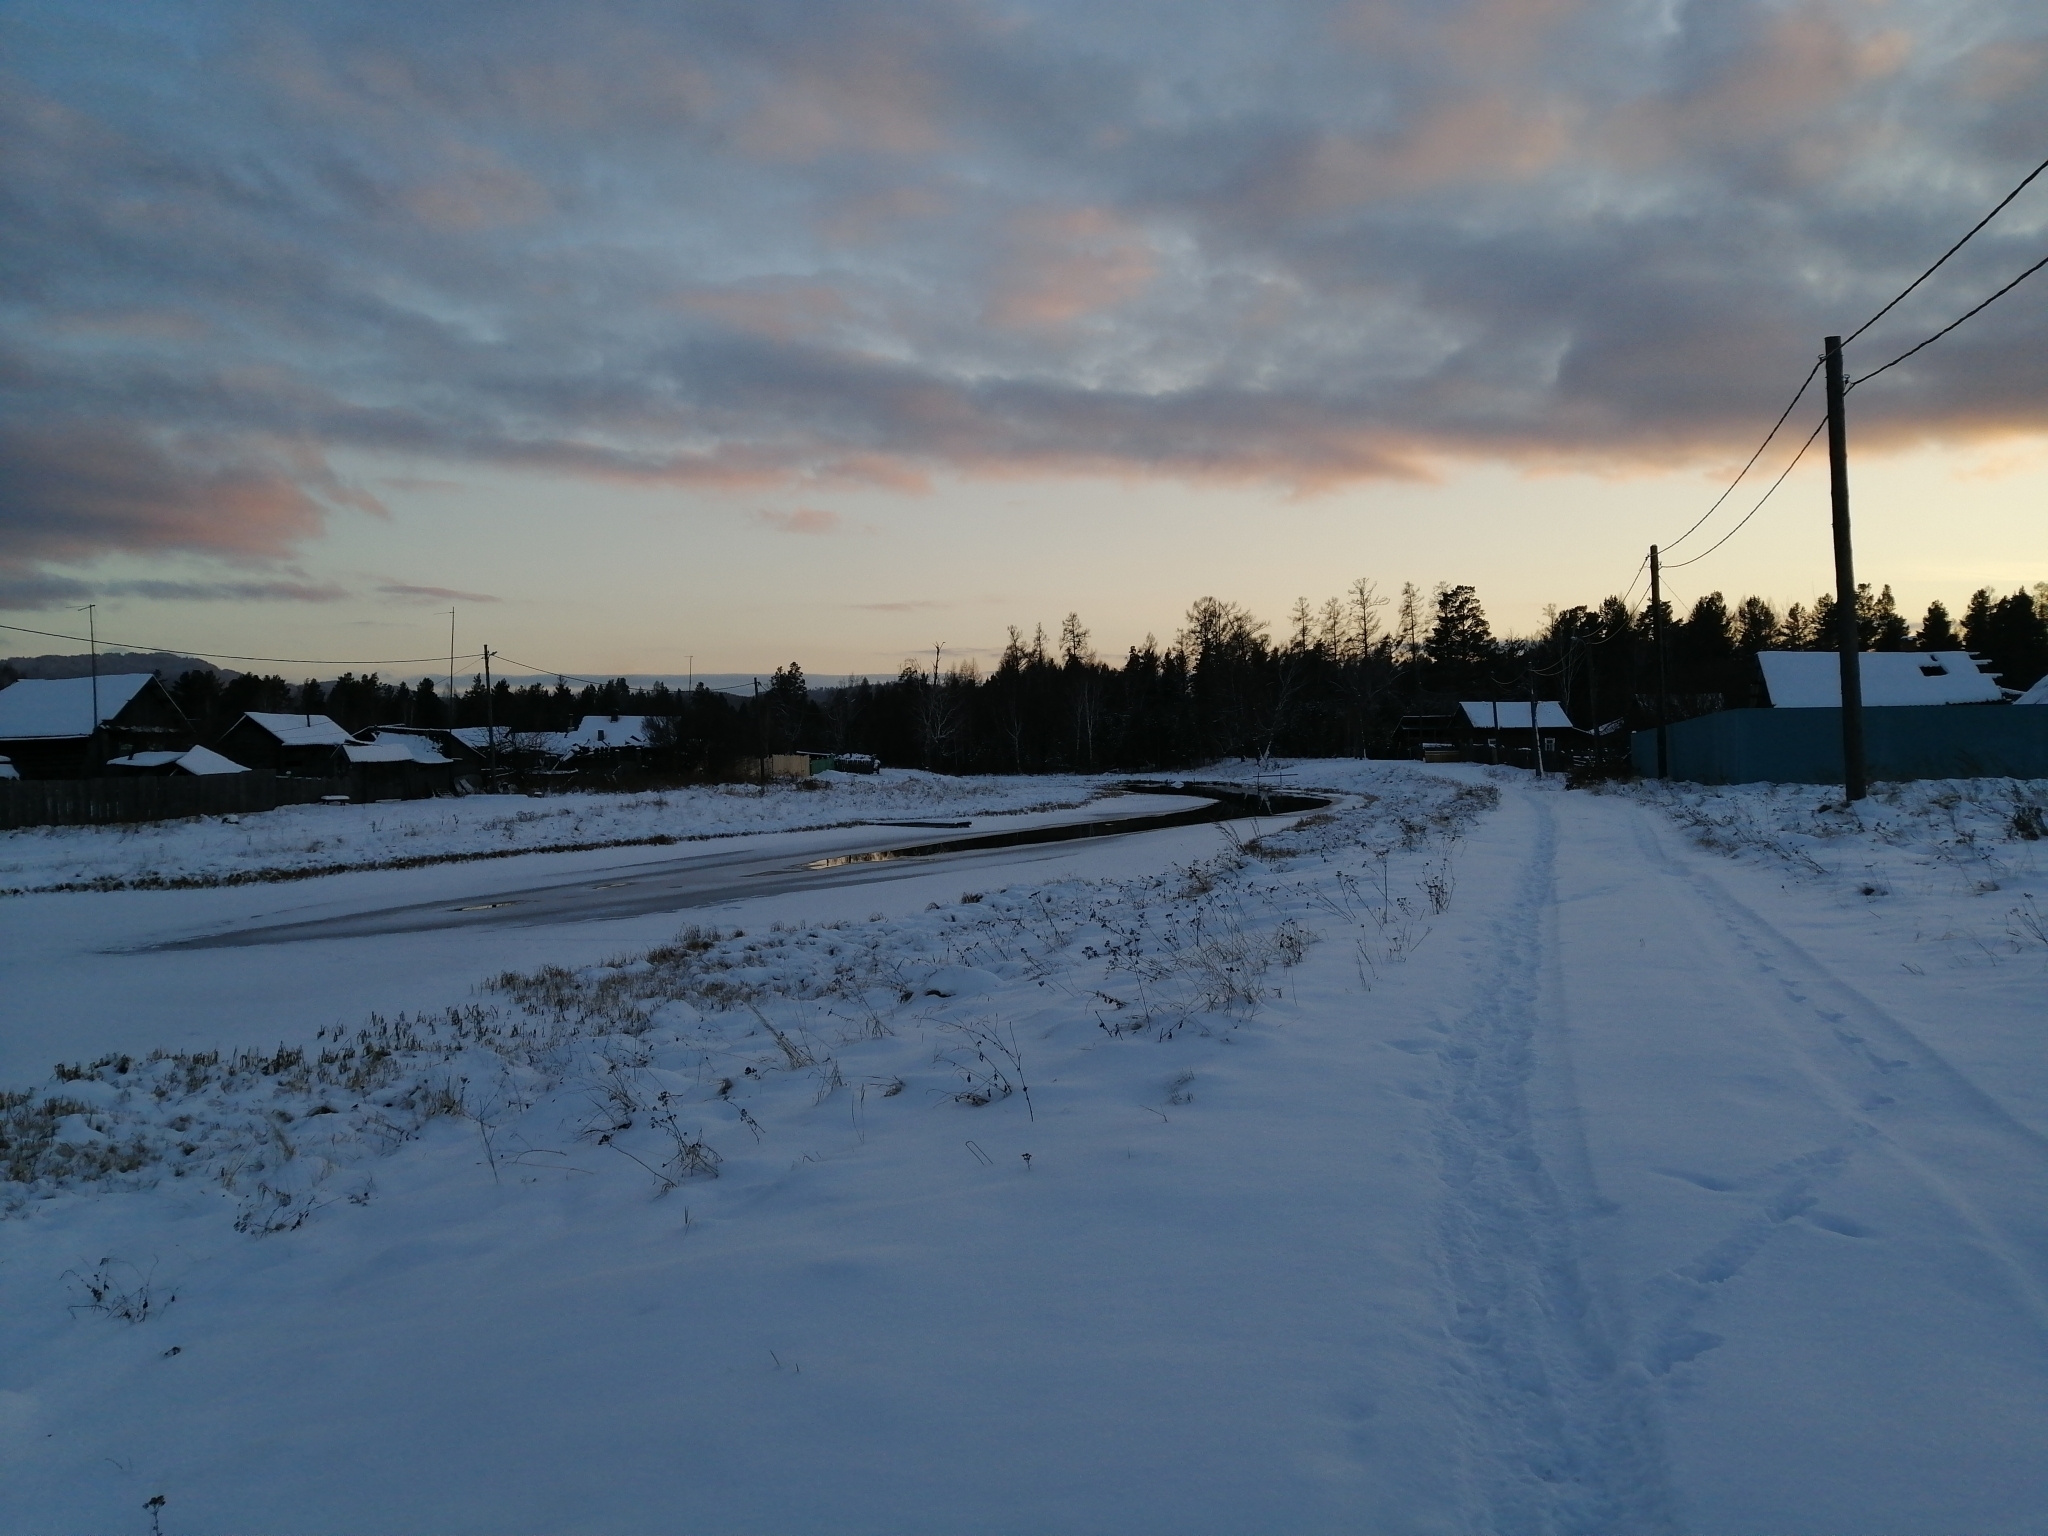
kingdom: Plantae
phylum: Tracheophyta
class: Pinopsida
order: Pinales
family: Pinaceae
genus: Pinus
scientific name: Pinus sylvestris
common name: Scots pine
